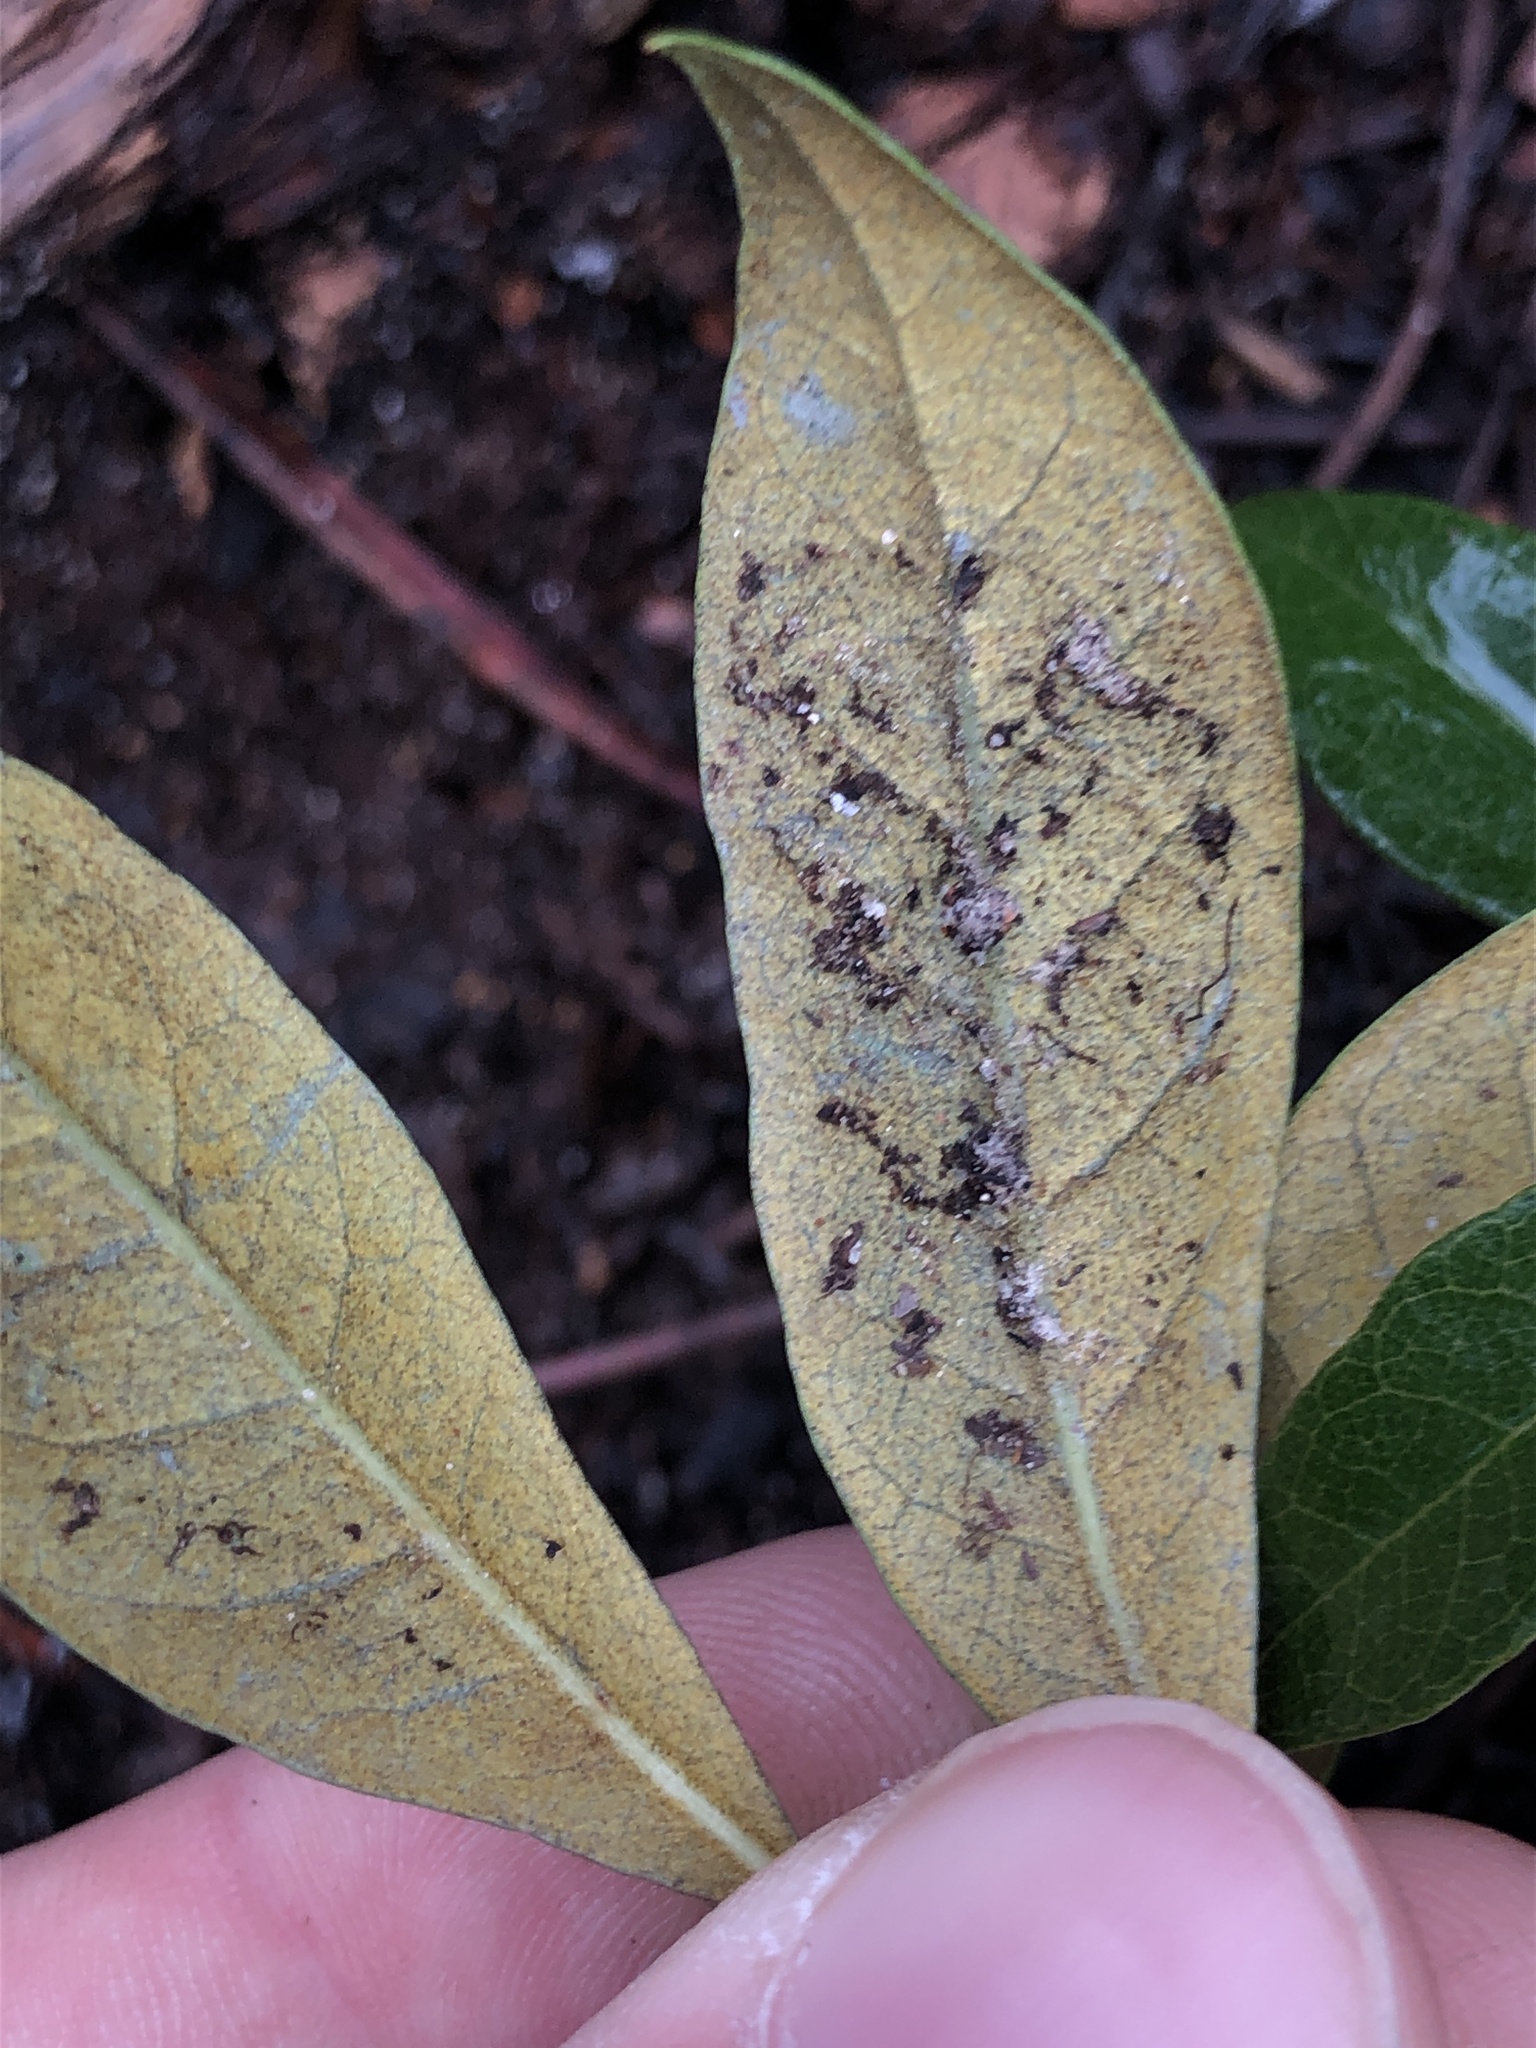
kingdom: Plantae
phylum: Tracheophyta
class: Magnoliopsida
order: Fagales
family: Fagaceae
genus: Chrysolepis
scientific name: Chrysolepis chrysophylla
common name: Giant chinquapin
